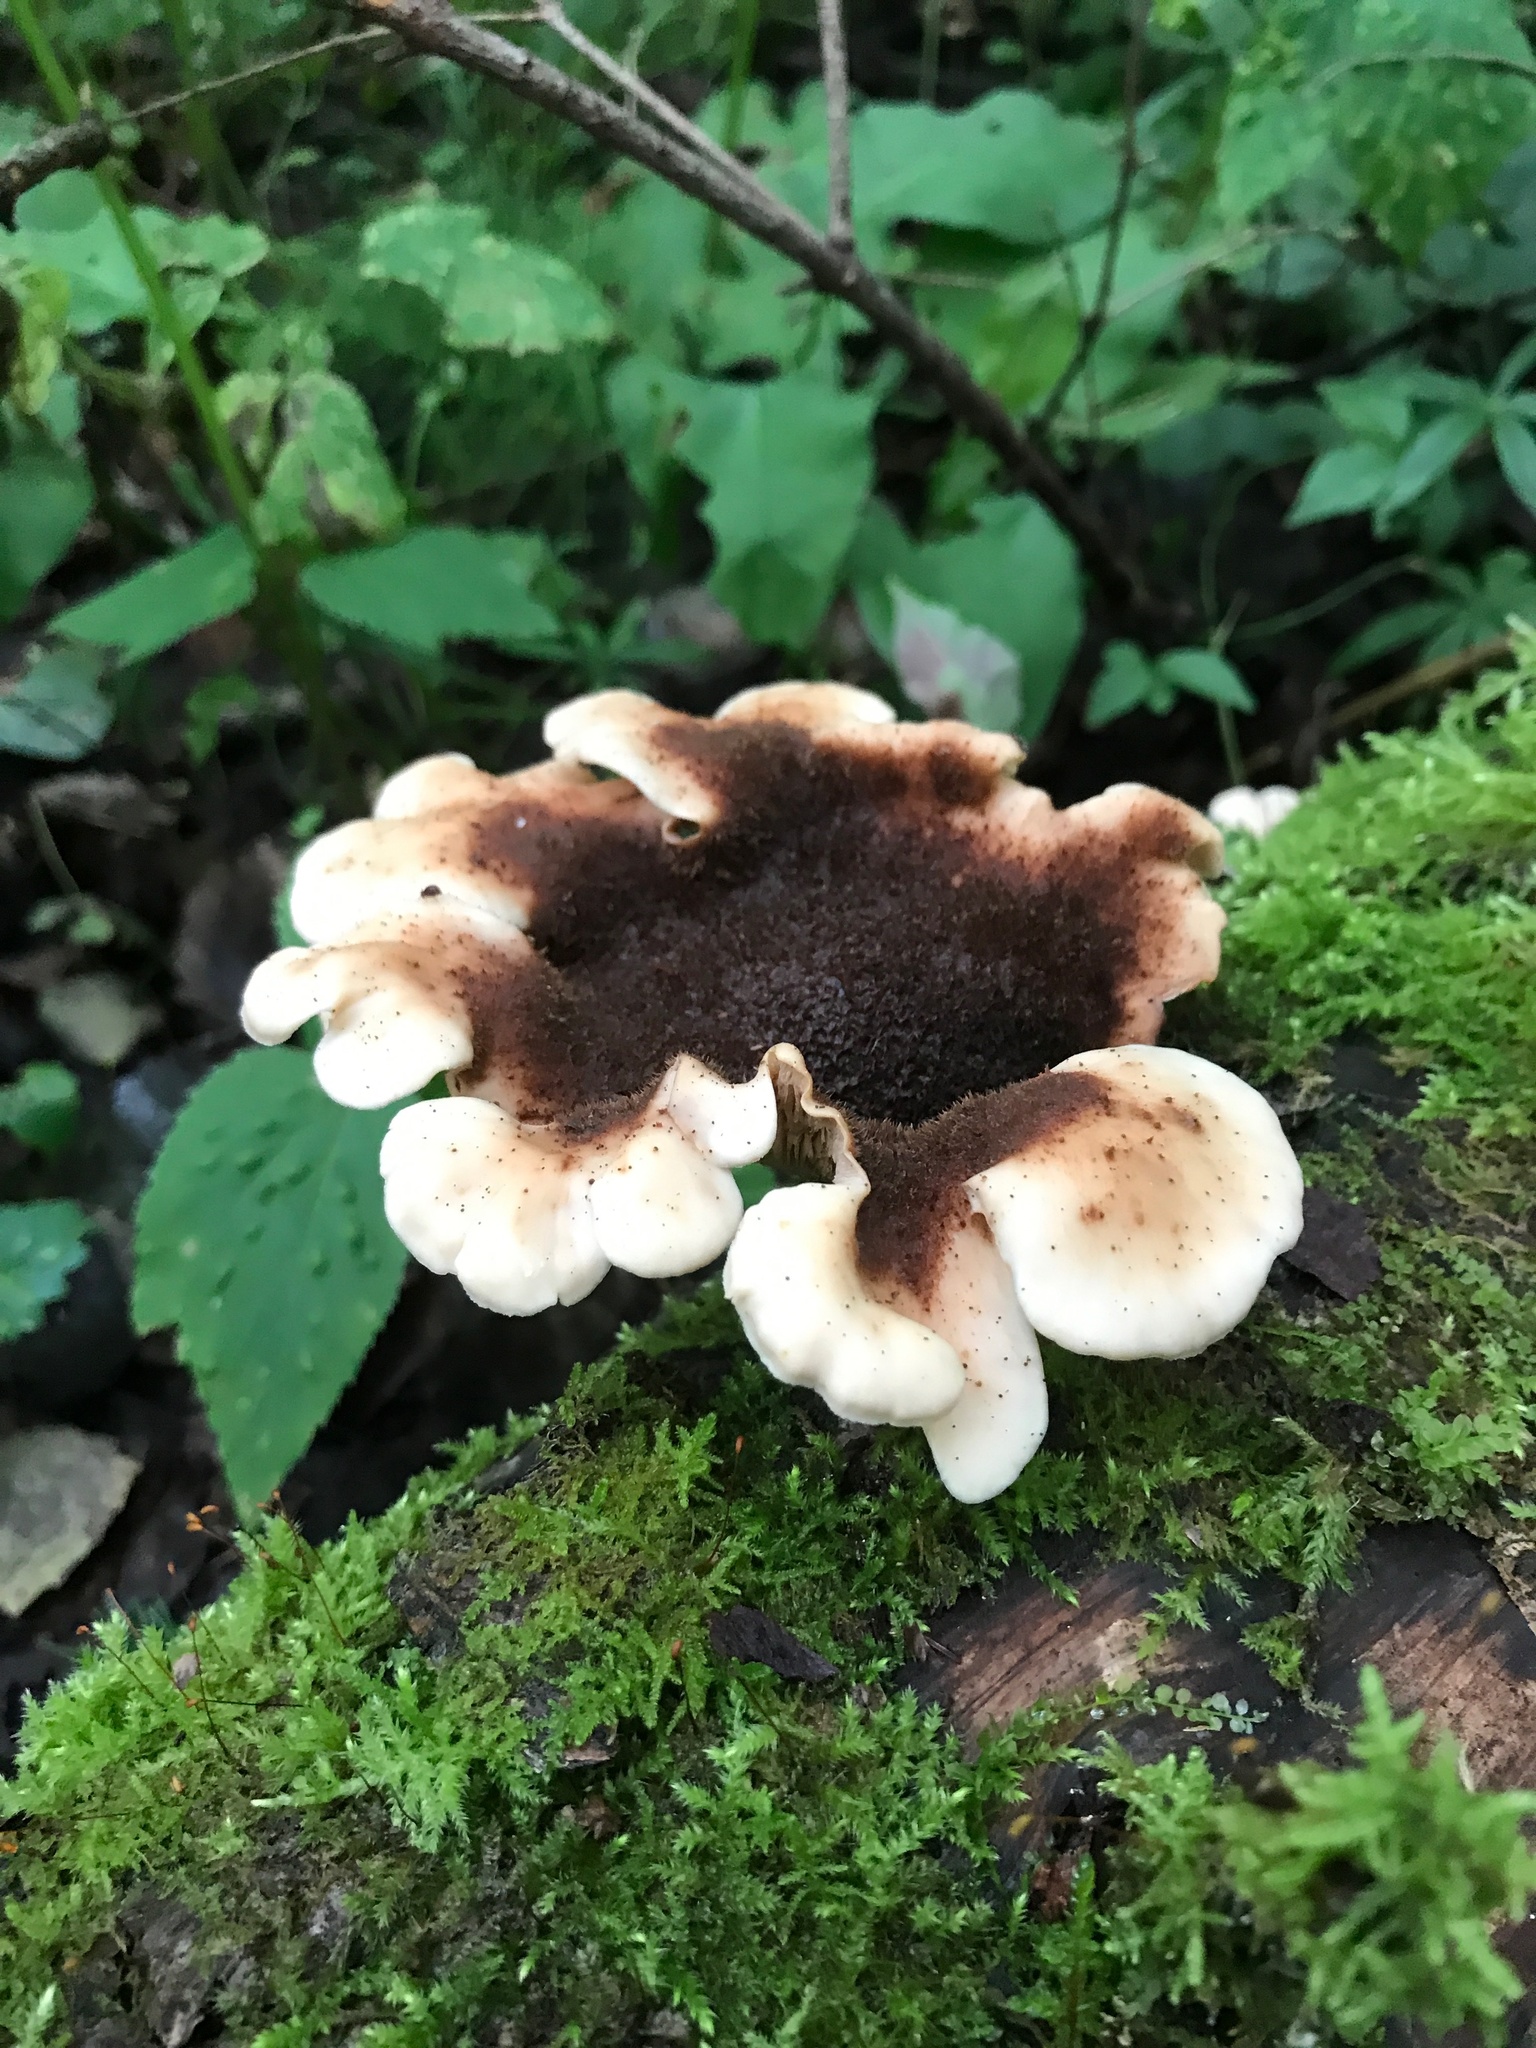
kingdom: Fungi
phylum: Basidiomycota
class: Agaricomycetes
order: Russulales
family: Auriscalpiaceae
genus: Lentinellus
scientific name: Lentinellus ursinus
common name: Bear lentinus
